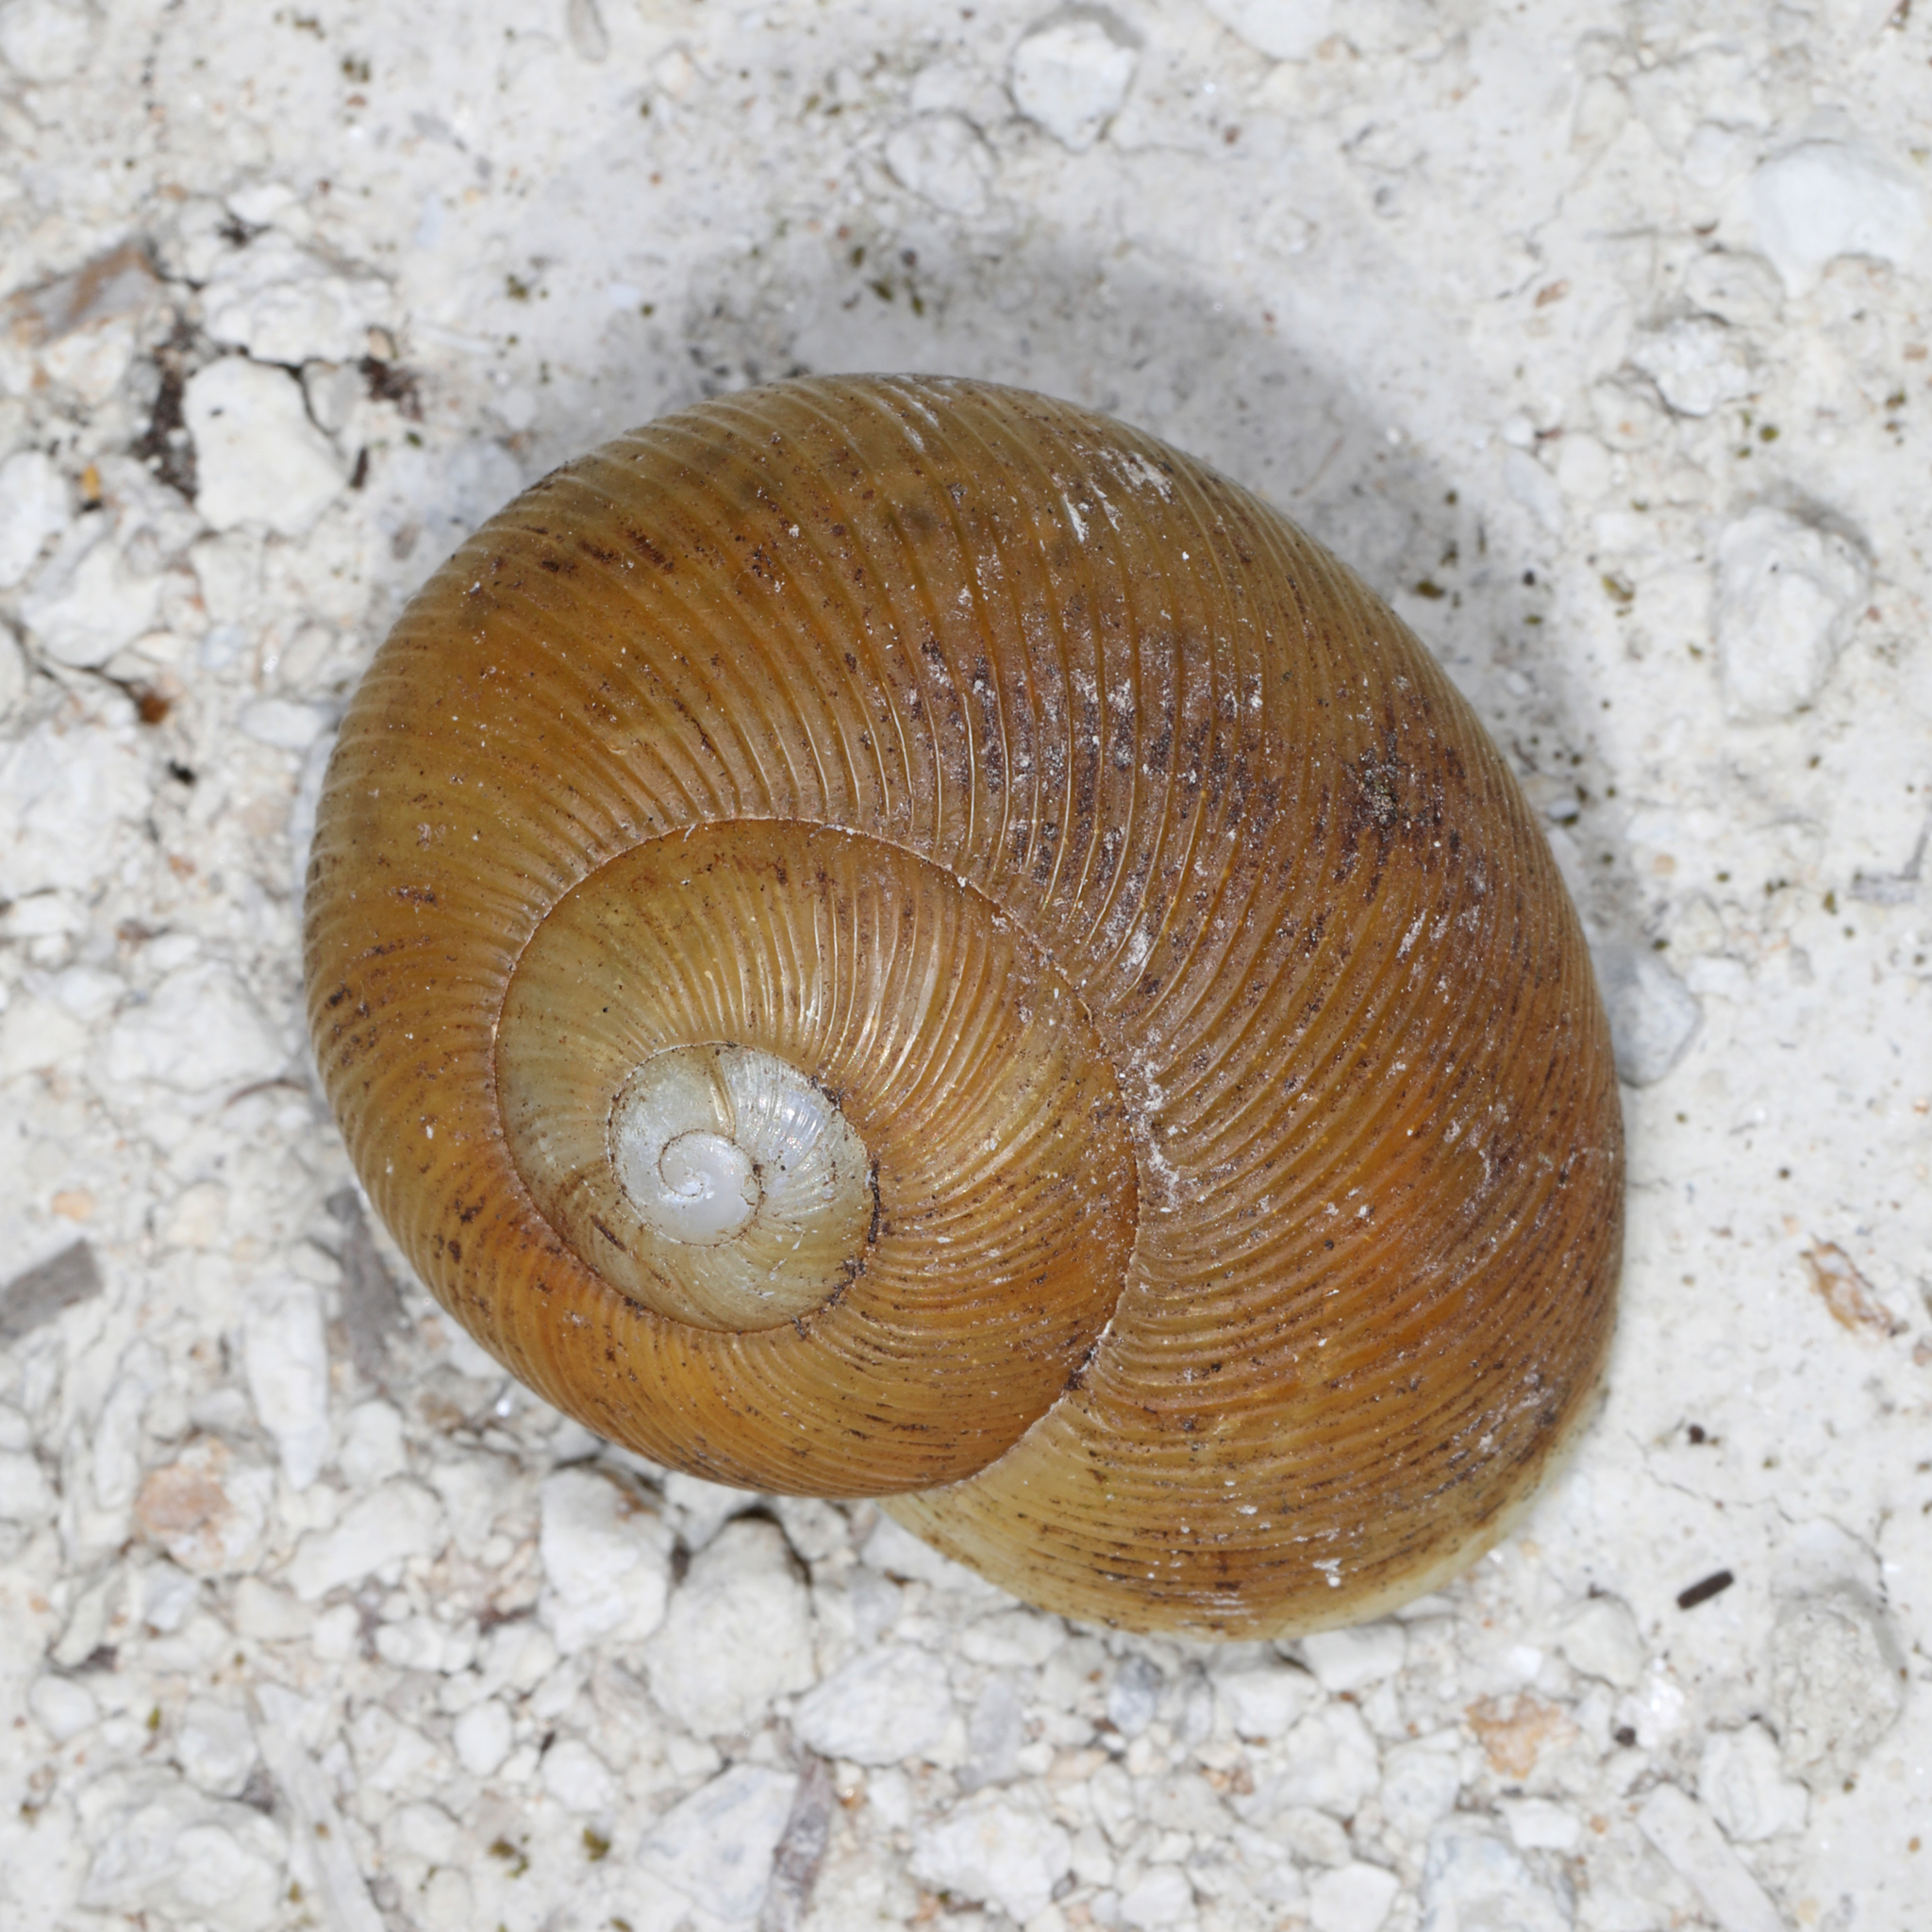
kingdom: Animalia
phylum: Mollusca
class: Gastropoda
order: Stylommatophora
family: Zachrysiidae
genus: Zachrysia
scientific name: Zachrysia provisoria
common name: Garden zachrysia
